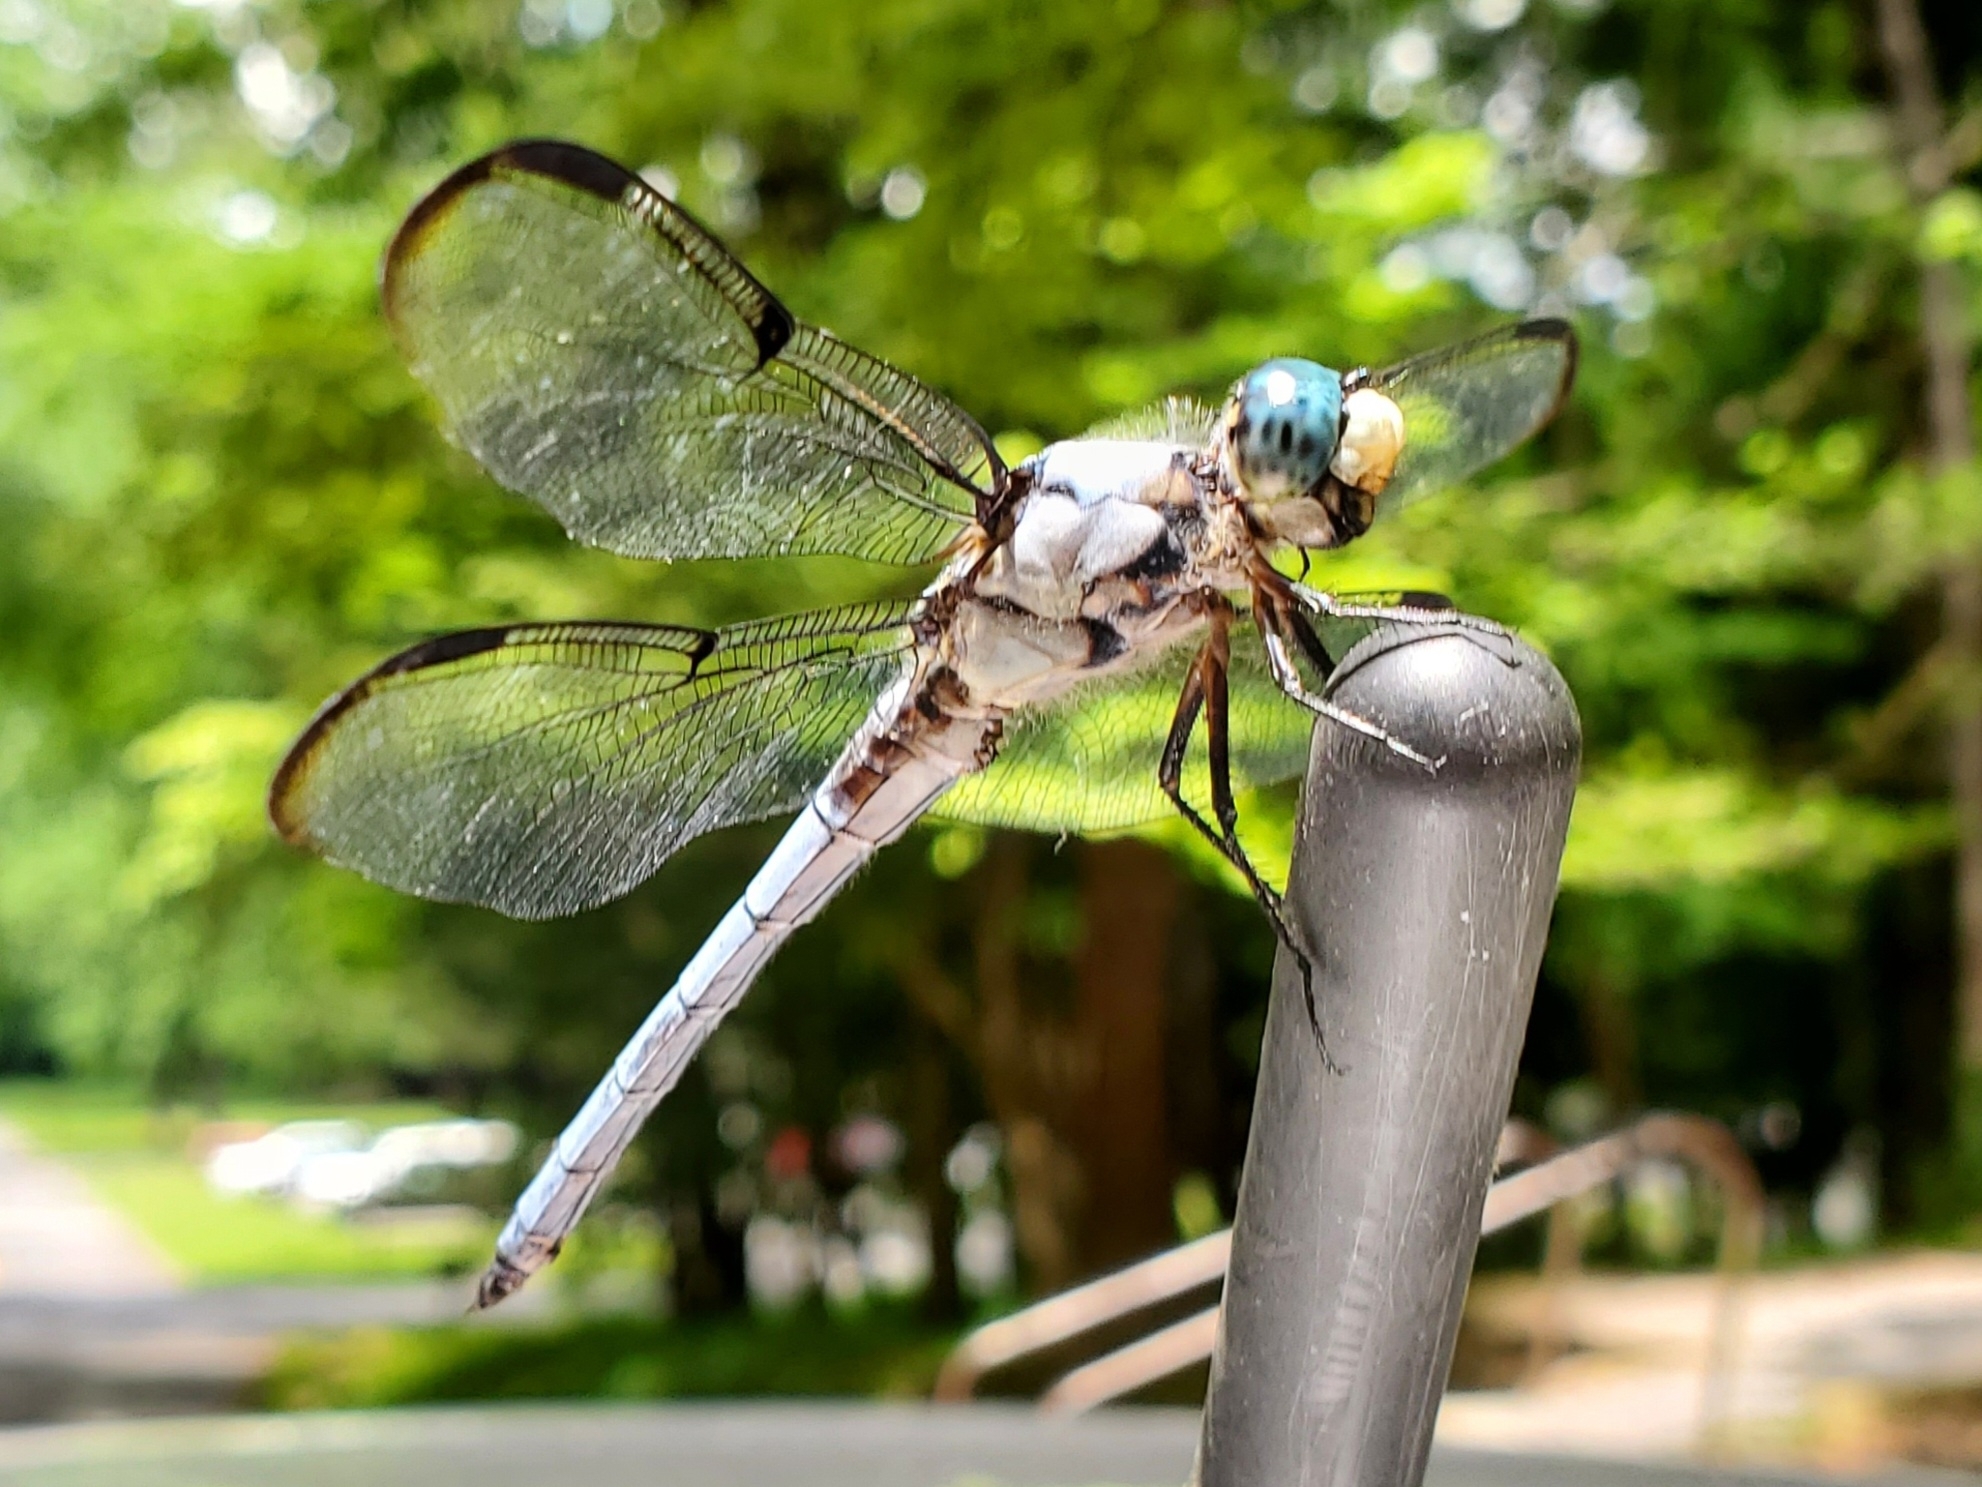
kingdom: Animalia
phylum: Arthropoda
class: Insecta
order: Odonata
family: Libellulidae
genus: Libellula
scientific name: Libellula vibrans
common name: Great blue skimmer
